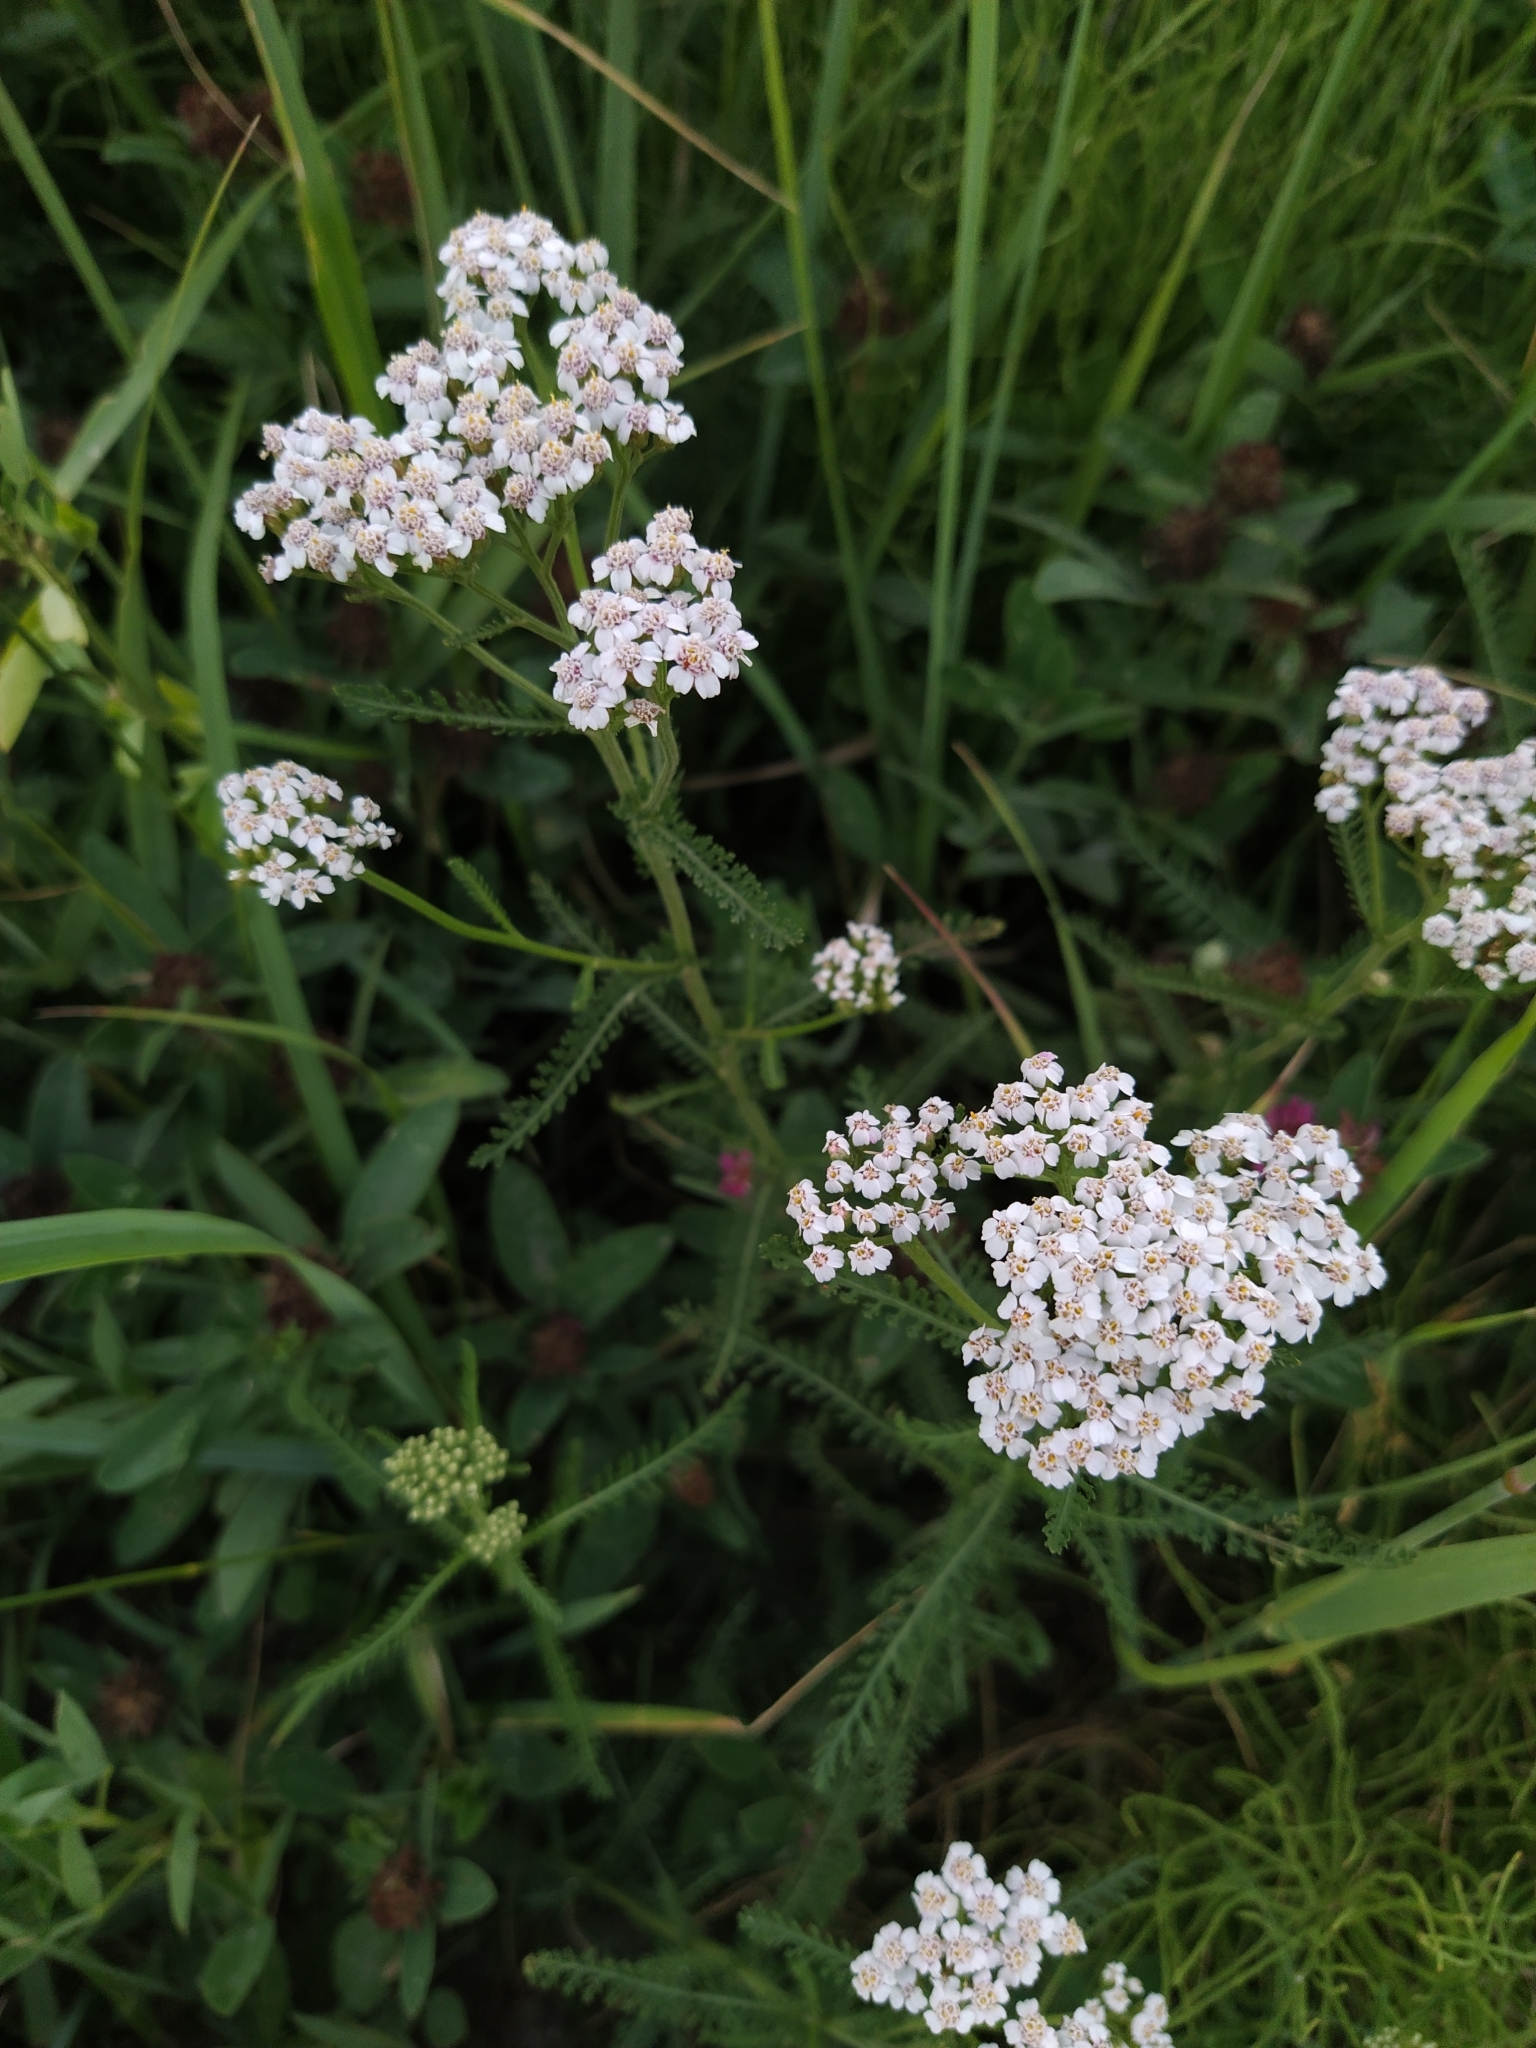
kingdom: Plantae
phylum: Tracheophyta
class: Magnoliopsida
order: Asterales
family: Asteraceae
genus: Achillea
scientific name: Achillea millefolium
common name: Yarrow
